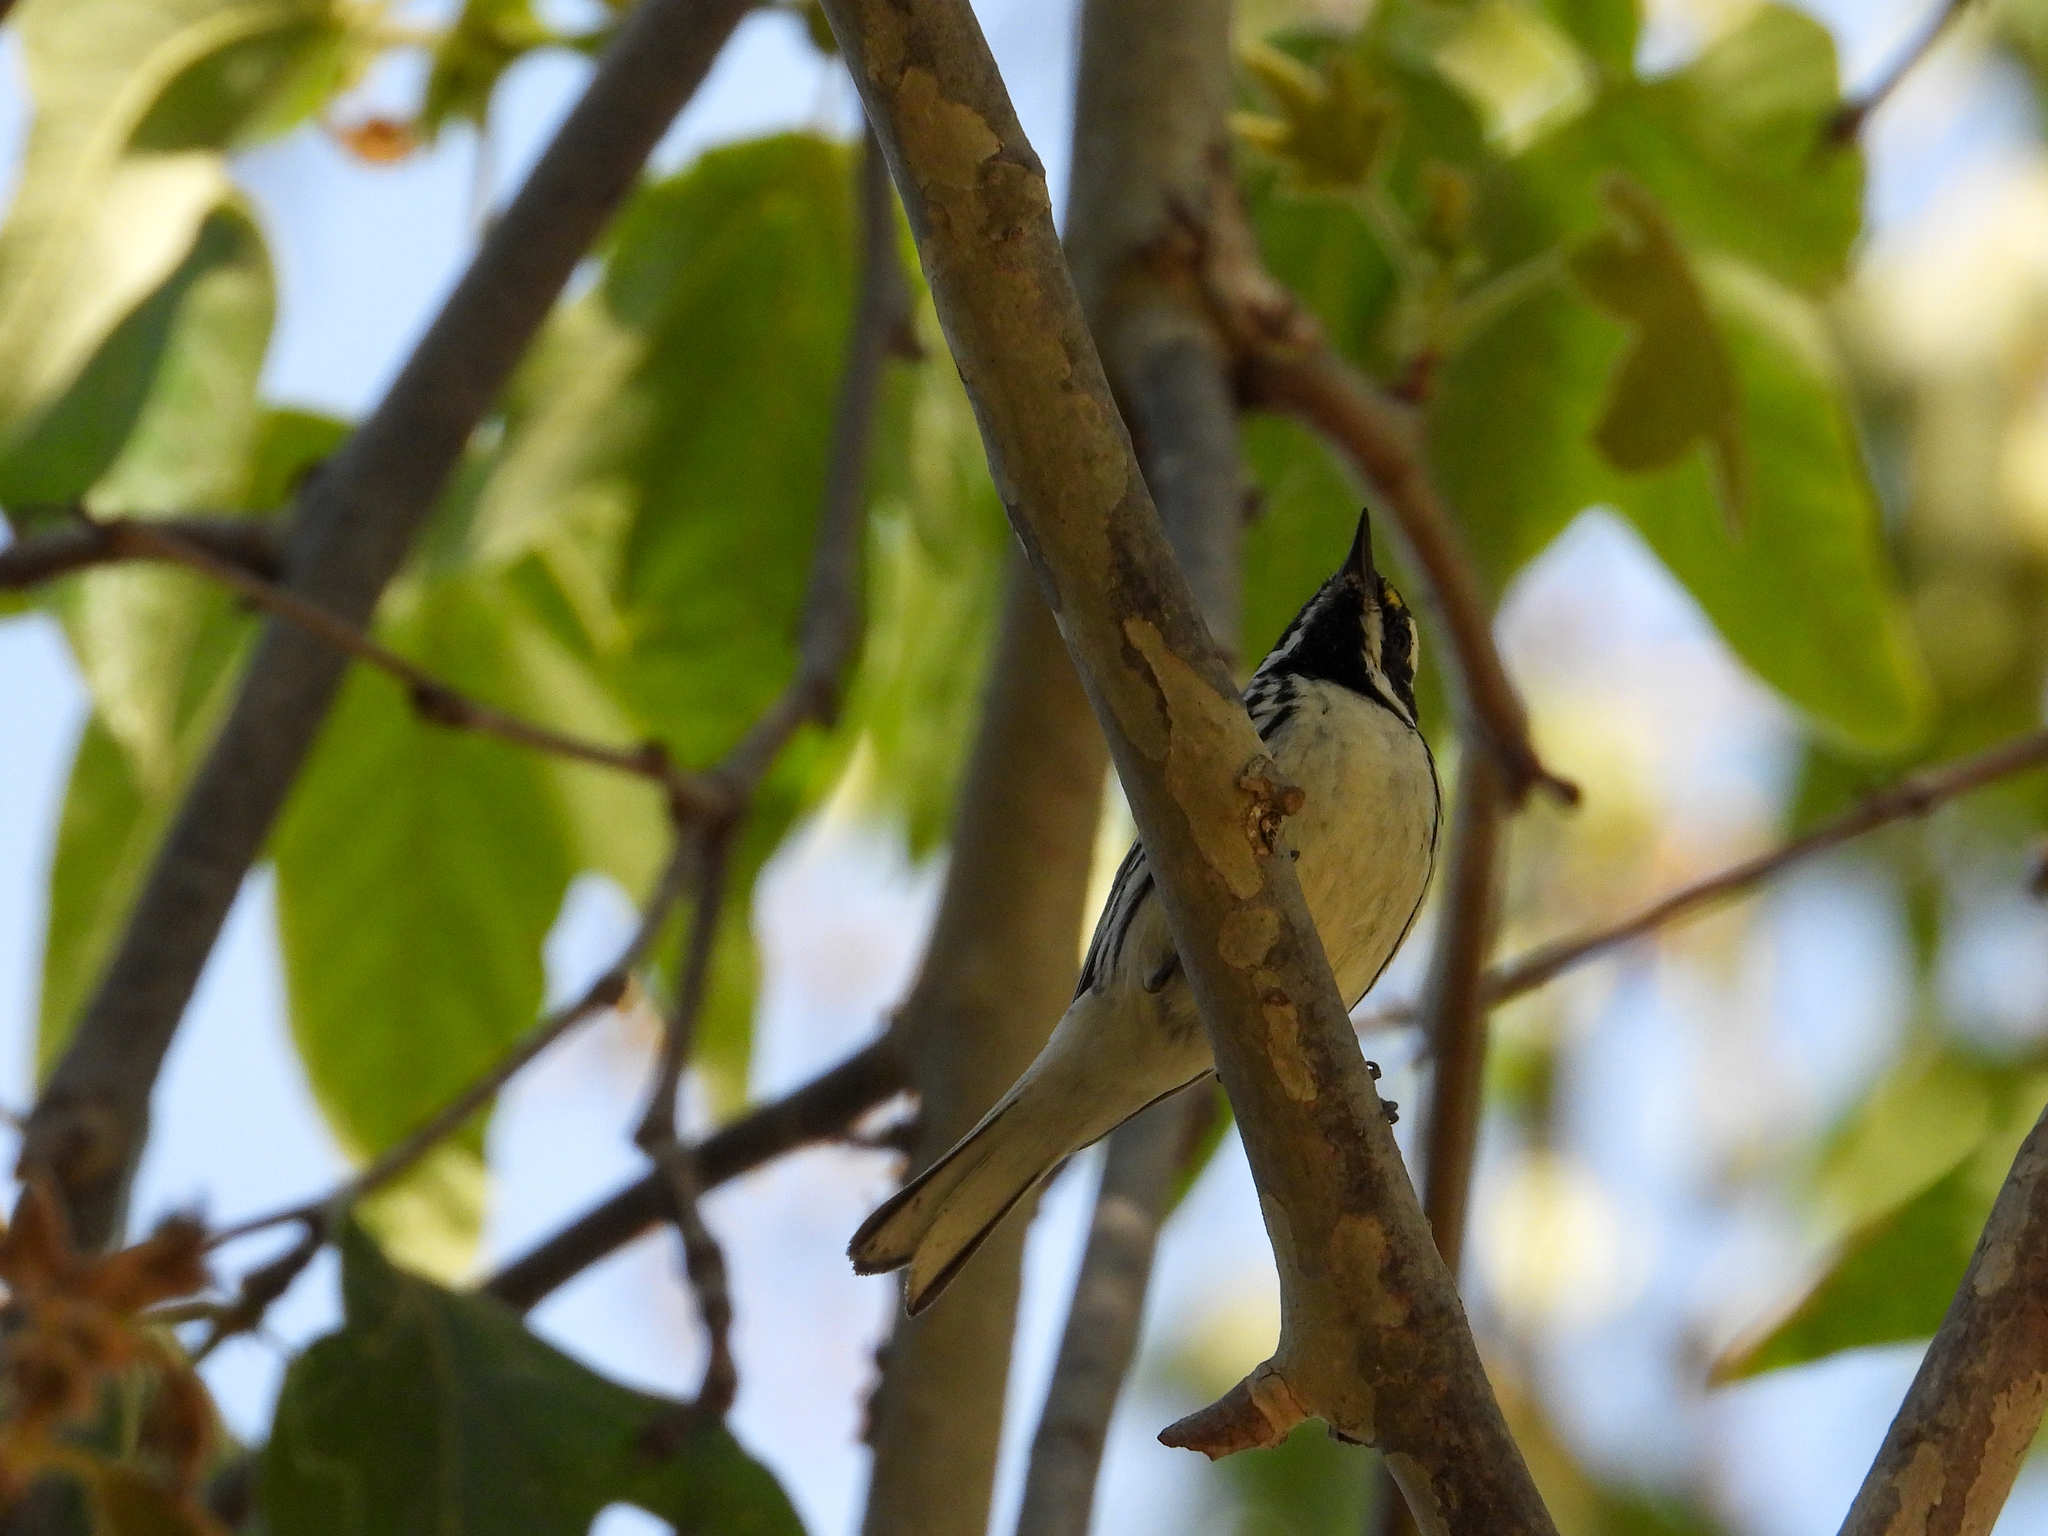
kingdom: Animalia
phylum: Chordata
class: Aves
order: Passeriformes
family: Parulidae
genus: Setophaga
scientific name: Setophaga nigrescens
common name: Black-throated gray warbler
